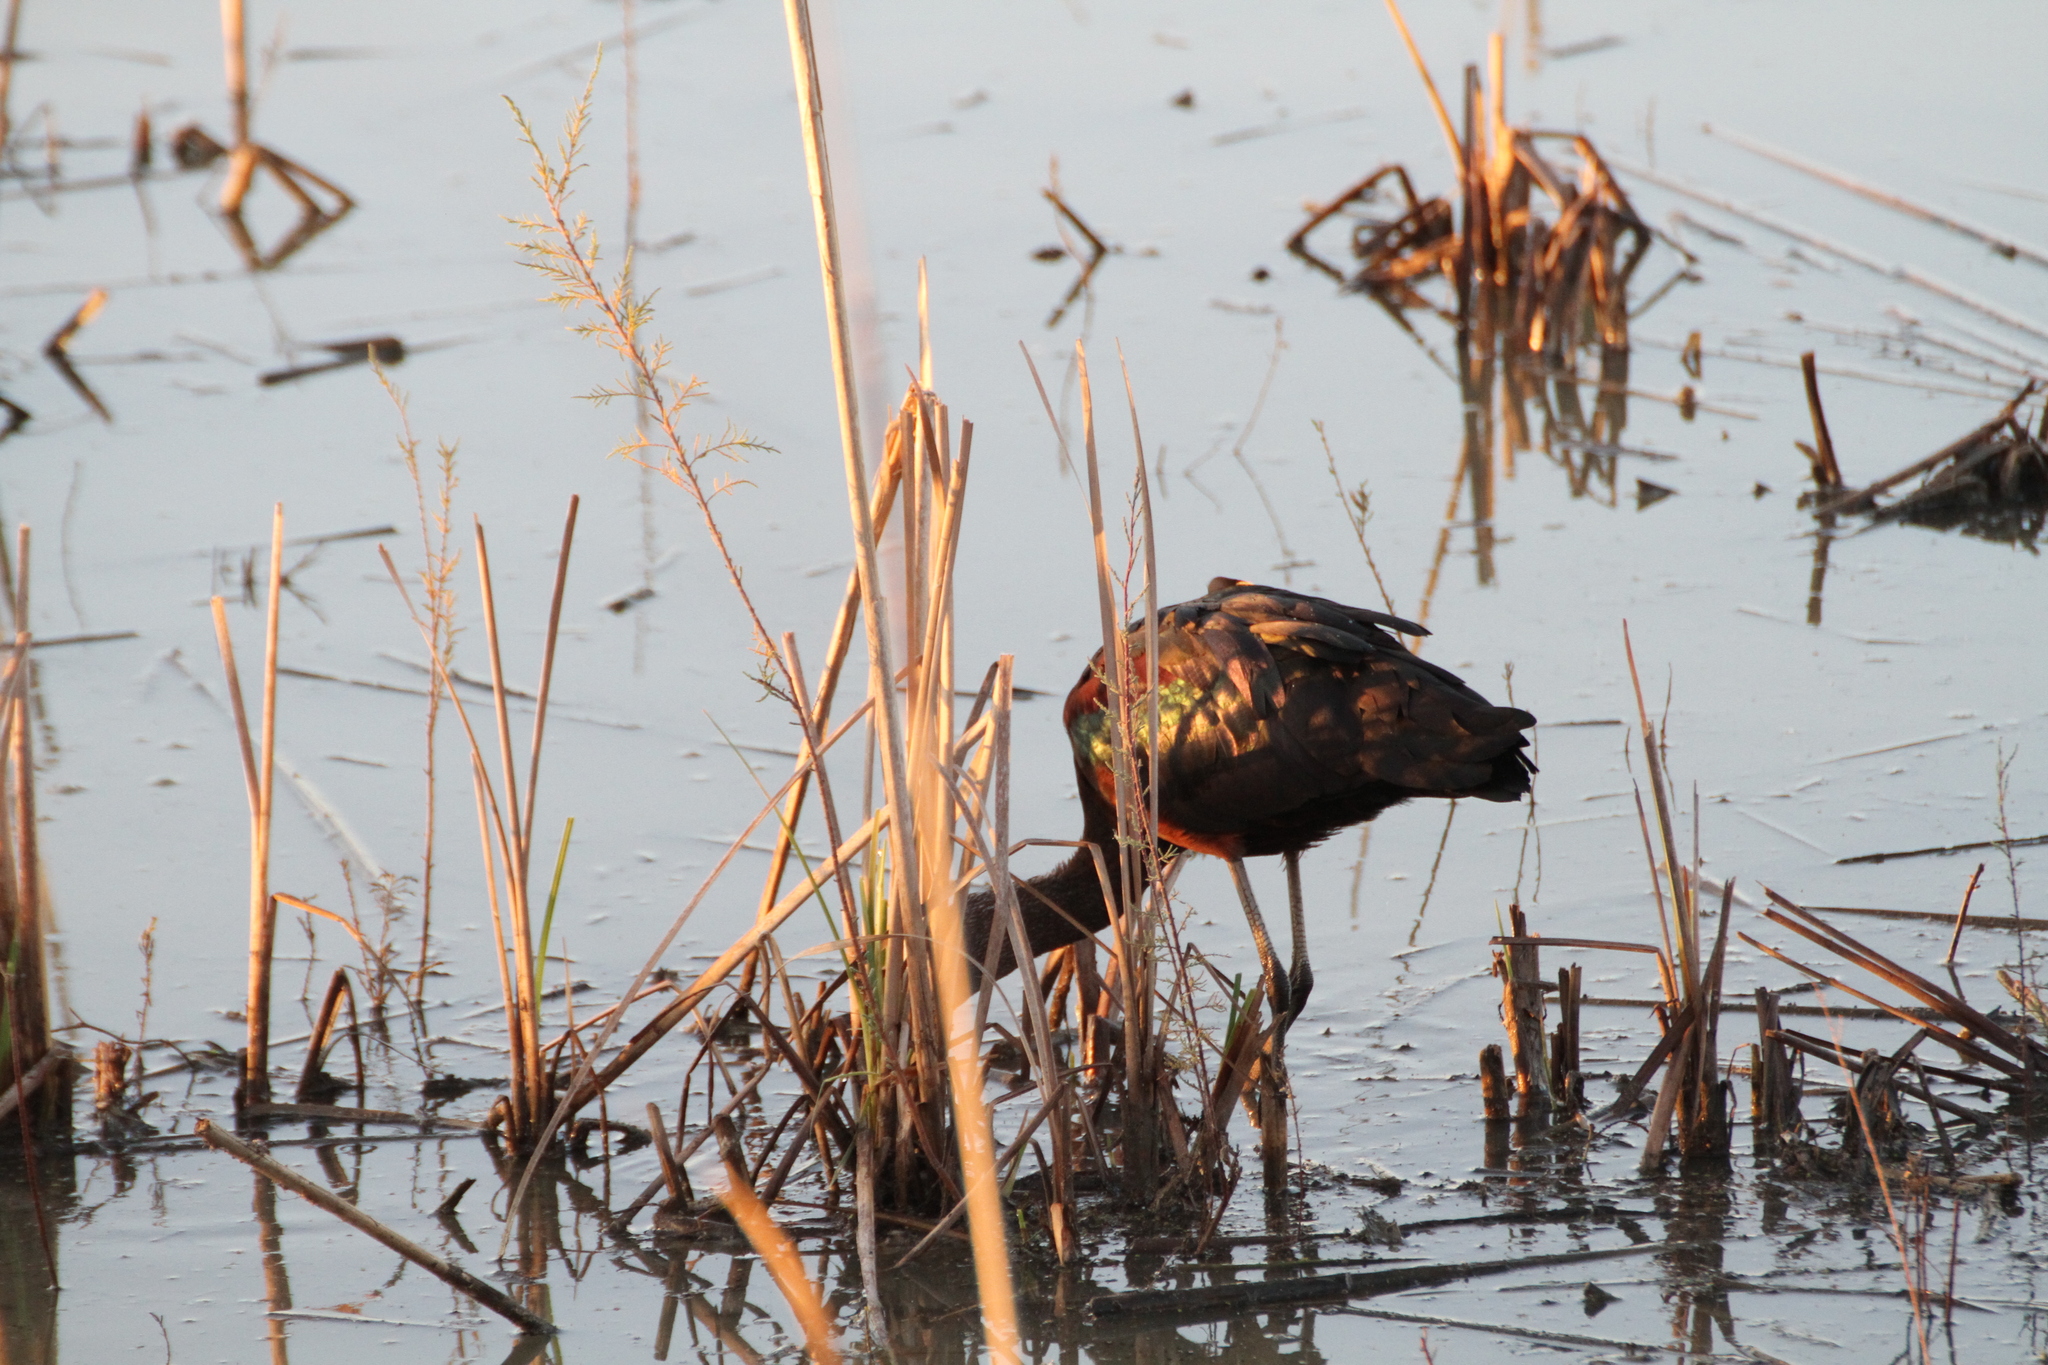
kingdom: Animalia
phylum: Chordata
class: Aves
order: Pelecaniformes
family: Threskiornithidae
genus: Plegadis
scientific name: Plegadis falcinellus
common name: Glossy ibis
